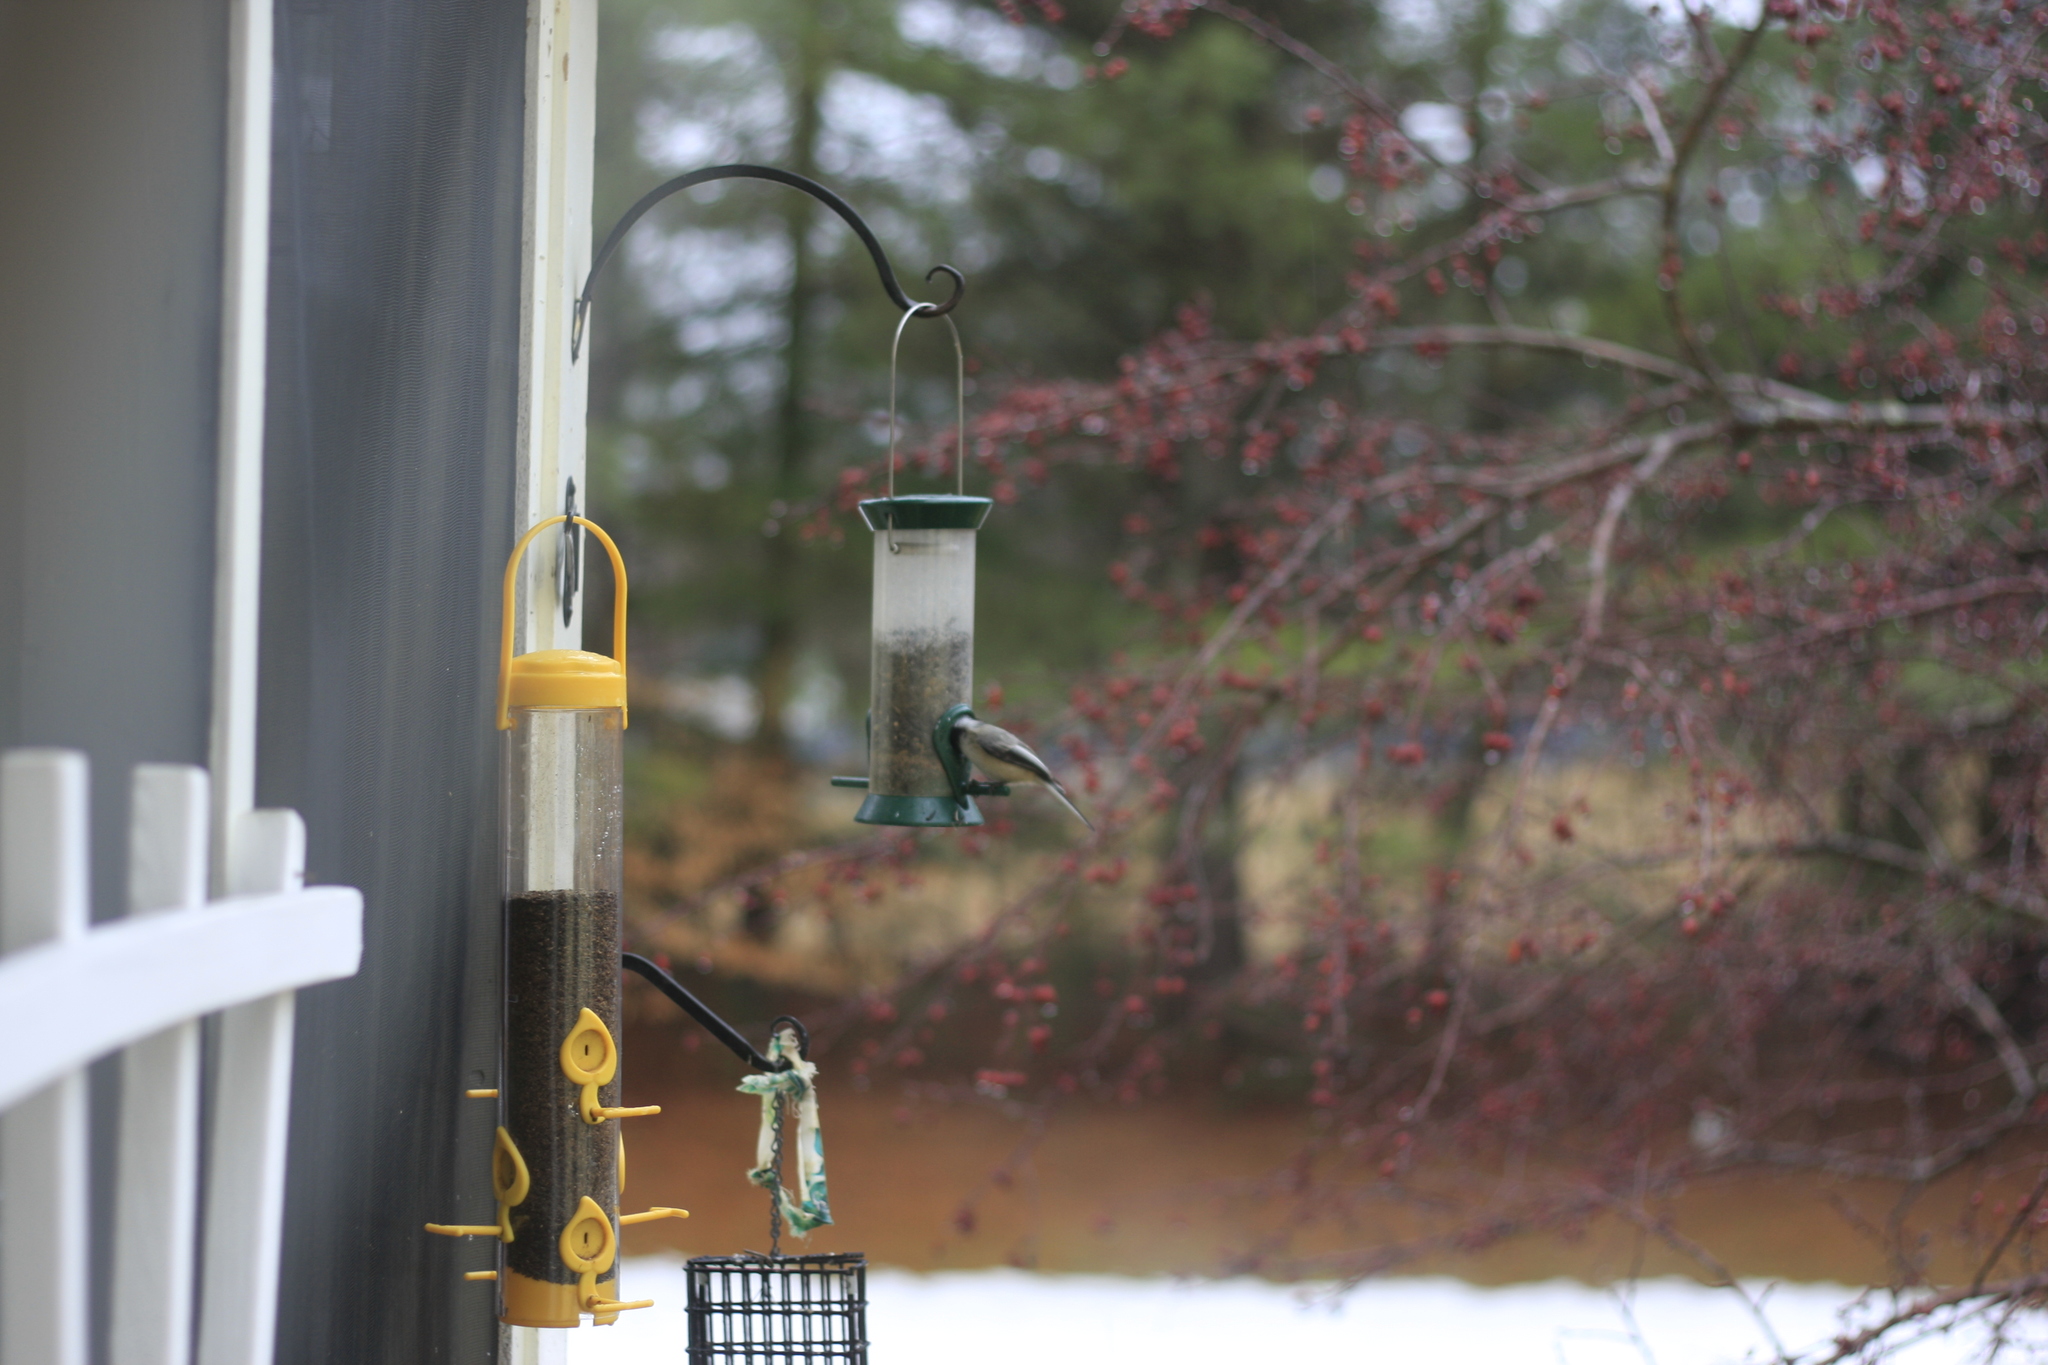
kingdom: Animalia
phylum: Chordata
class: Aves
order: Passeriformes
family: Paridae
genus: Poecile
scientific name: Poecile atricapillus
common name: Black-capped chickadee
